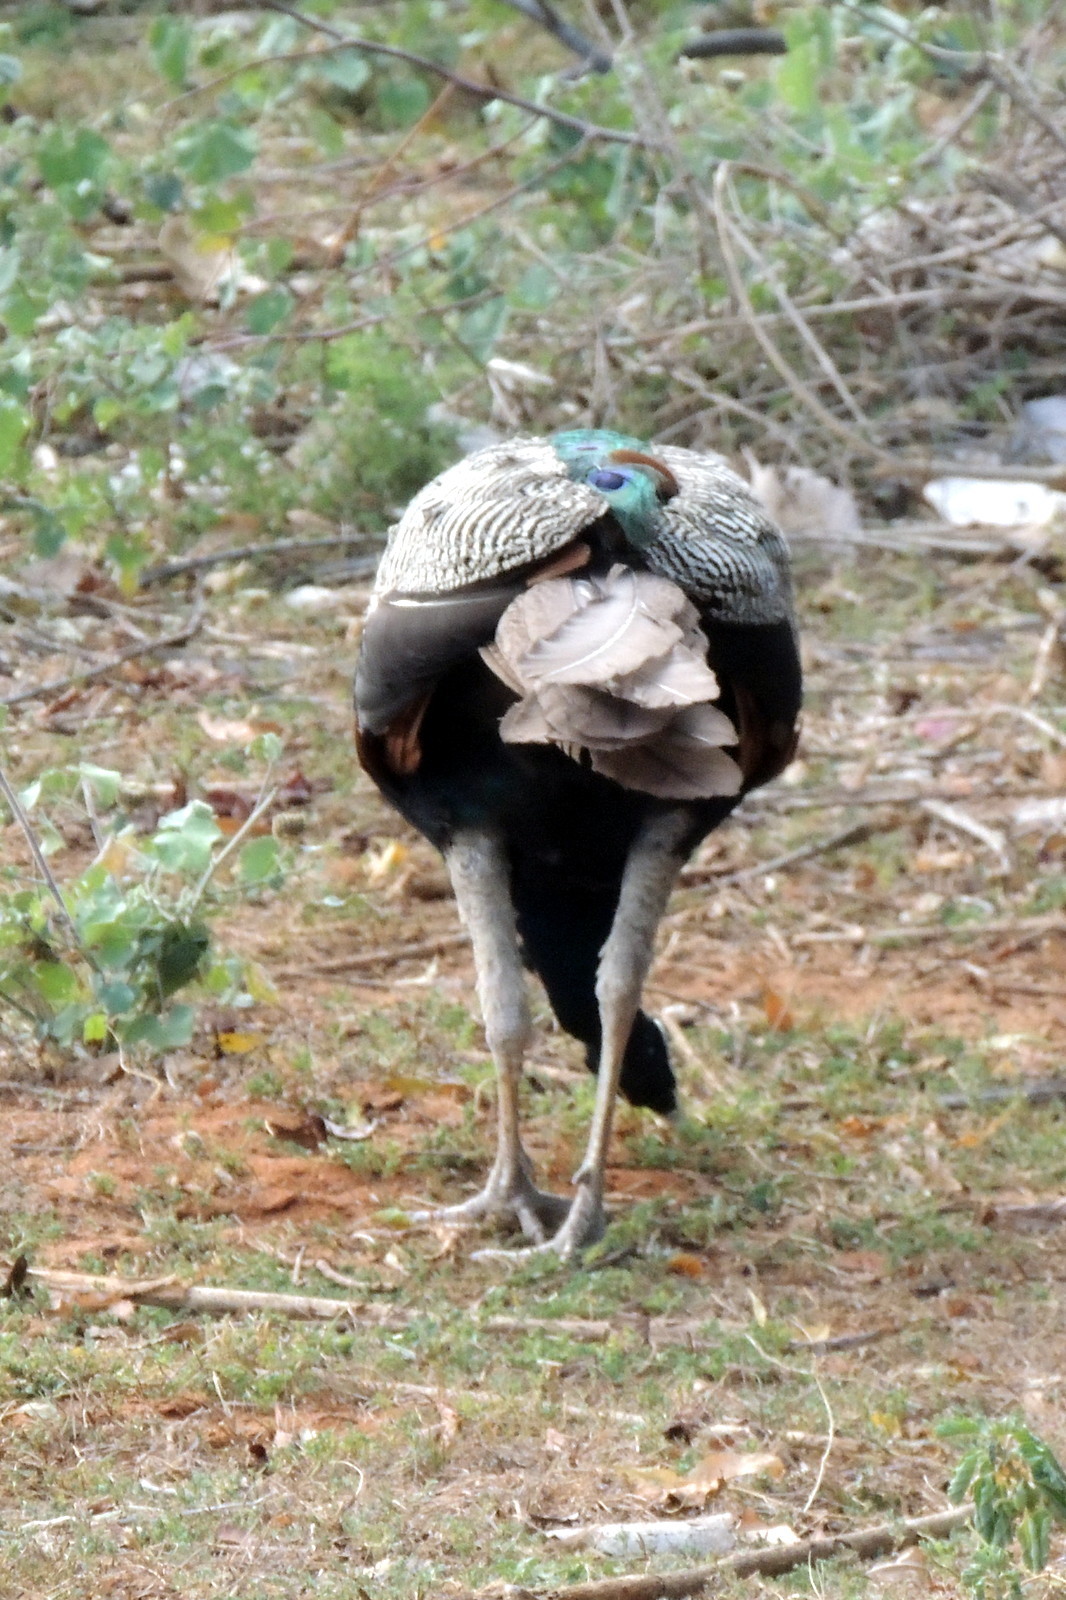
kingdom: Animalia
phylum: Chordata
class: Aves
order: Galliformes
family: Phasianidae
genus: Pavo
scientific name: Pavo cristatus
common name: Indian peafowl
